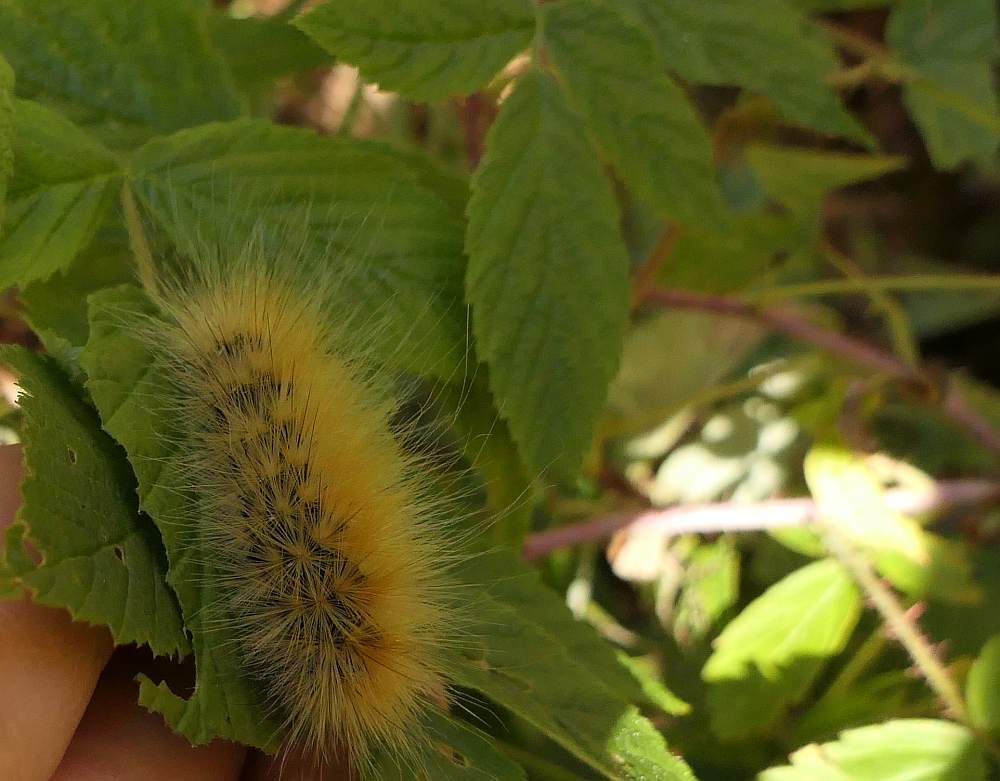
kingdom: Animalia
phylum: Arthropoda
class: Insecta
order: Lepidoptera
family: Erebidae
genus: Spilosoma
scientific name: Spilosoma virginica
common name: Virginia tiger moth
